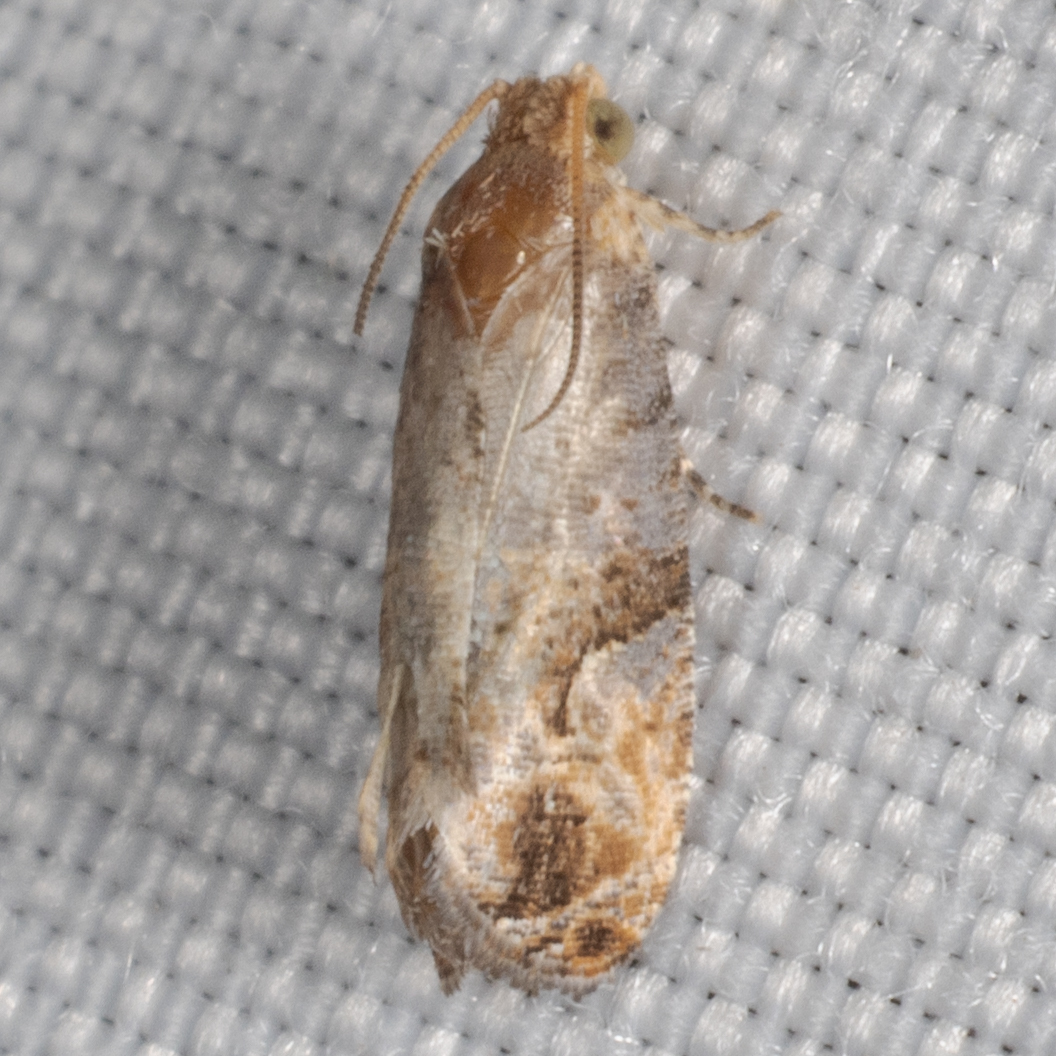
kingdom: Animalia
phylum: Arthropoda
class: Insecta
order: Lepidoptera
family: Tortricidae
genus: Paralobesia
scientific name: Paralobesia viteana
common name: Grape berry moth
